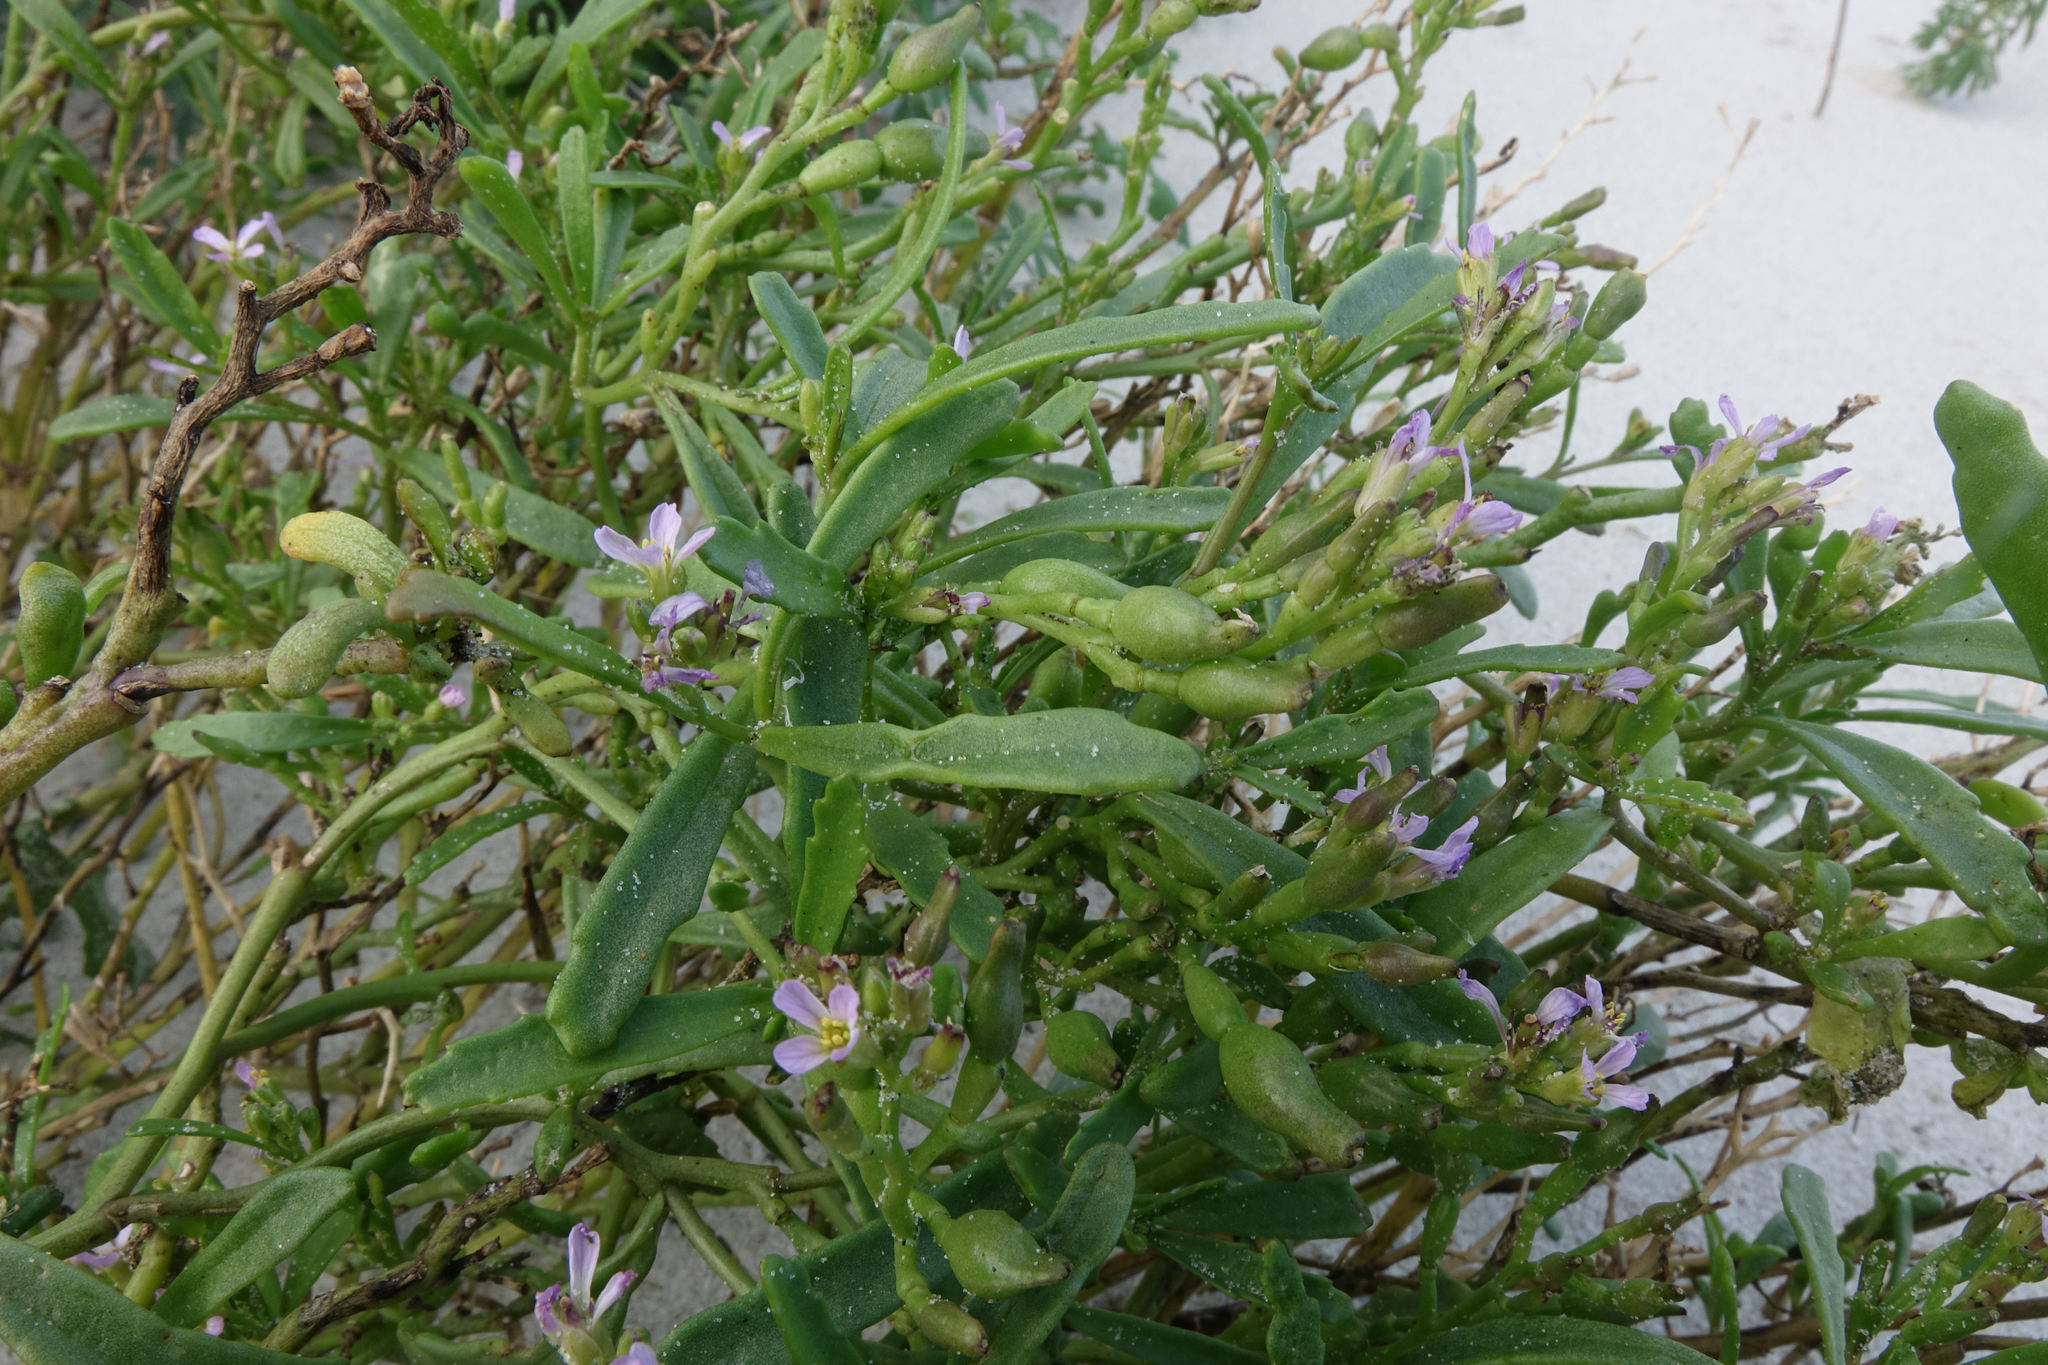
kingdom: Plantae
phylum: Tracheophyta
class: Magnoliopsida
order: Brassicales
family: Brassicaceae
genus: Cakile
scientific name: Cakile edentula
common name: American sea rocket
